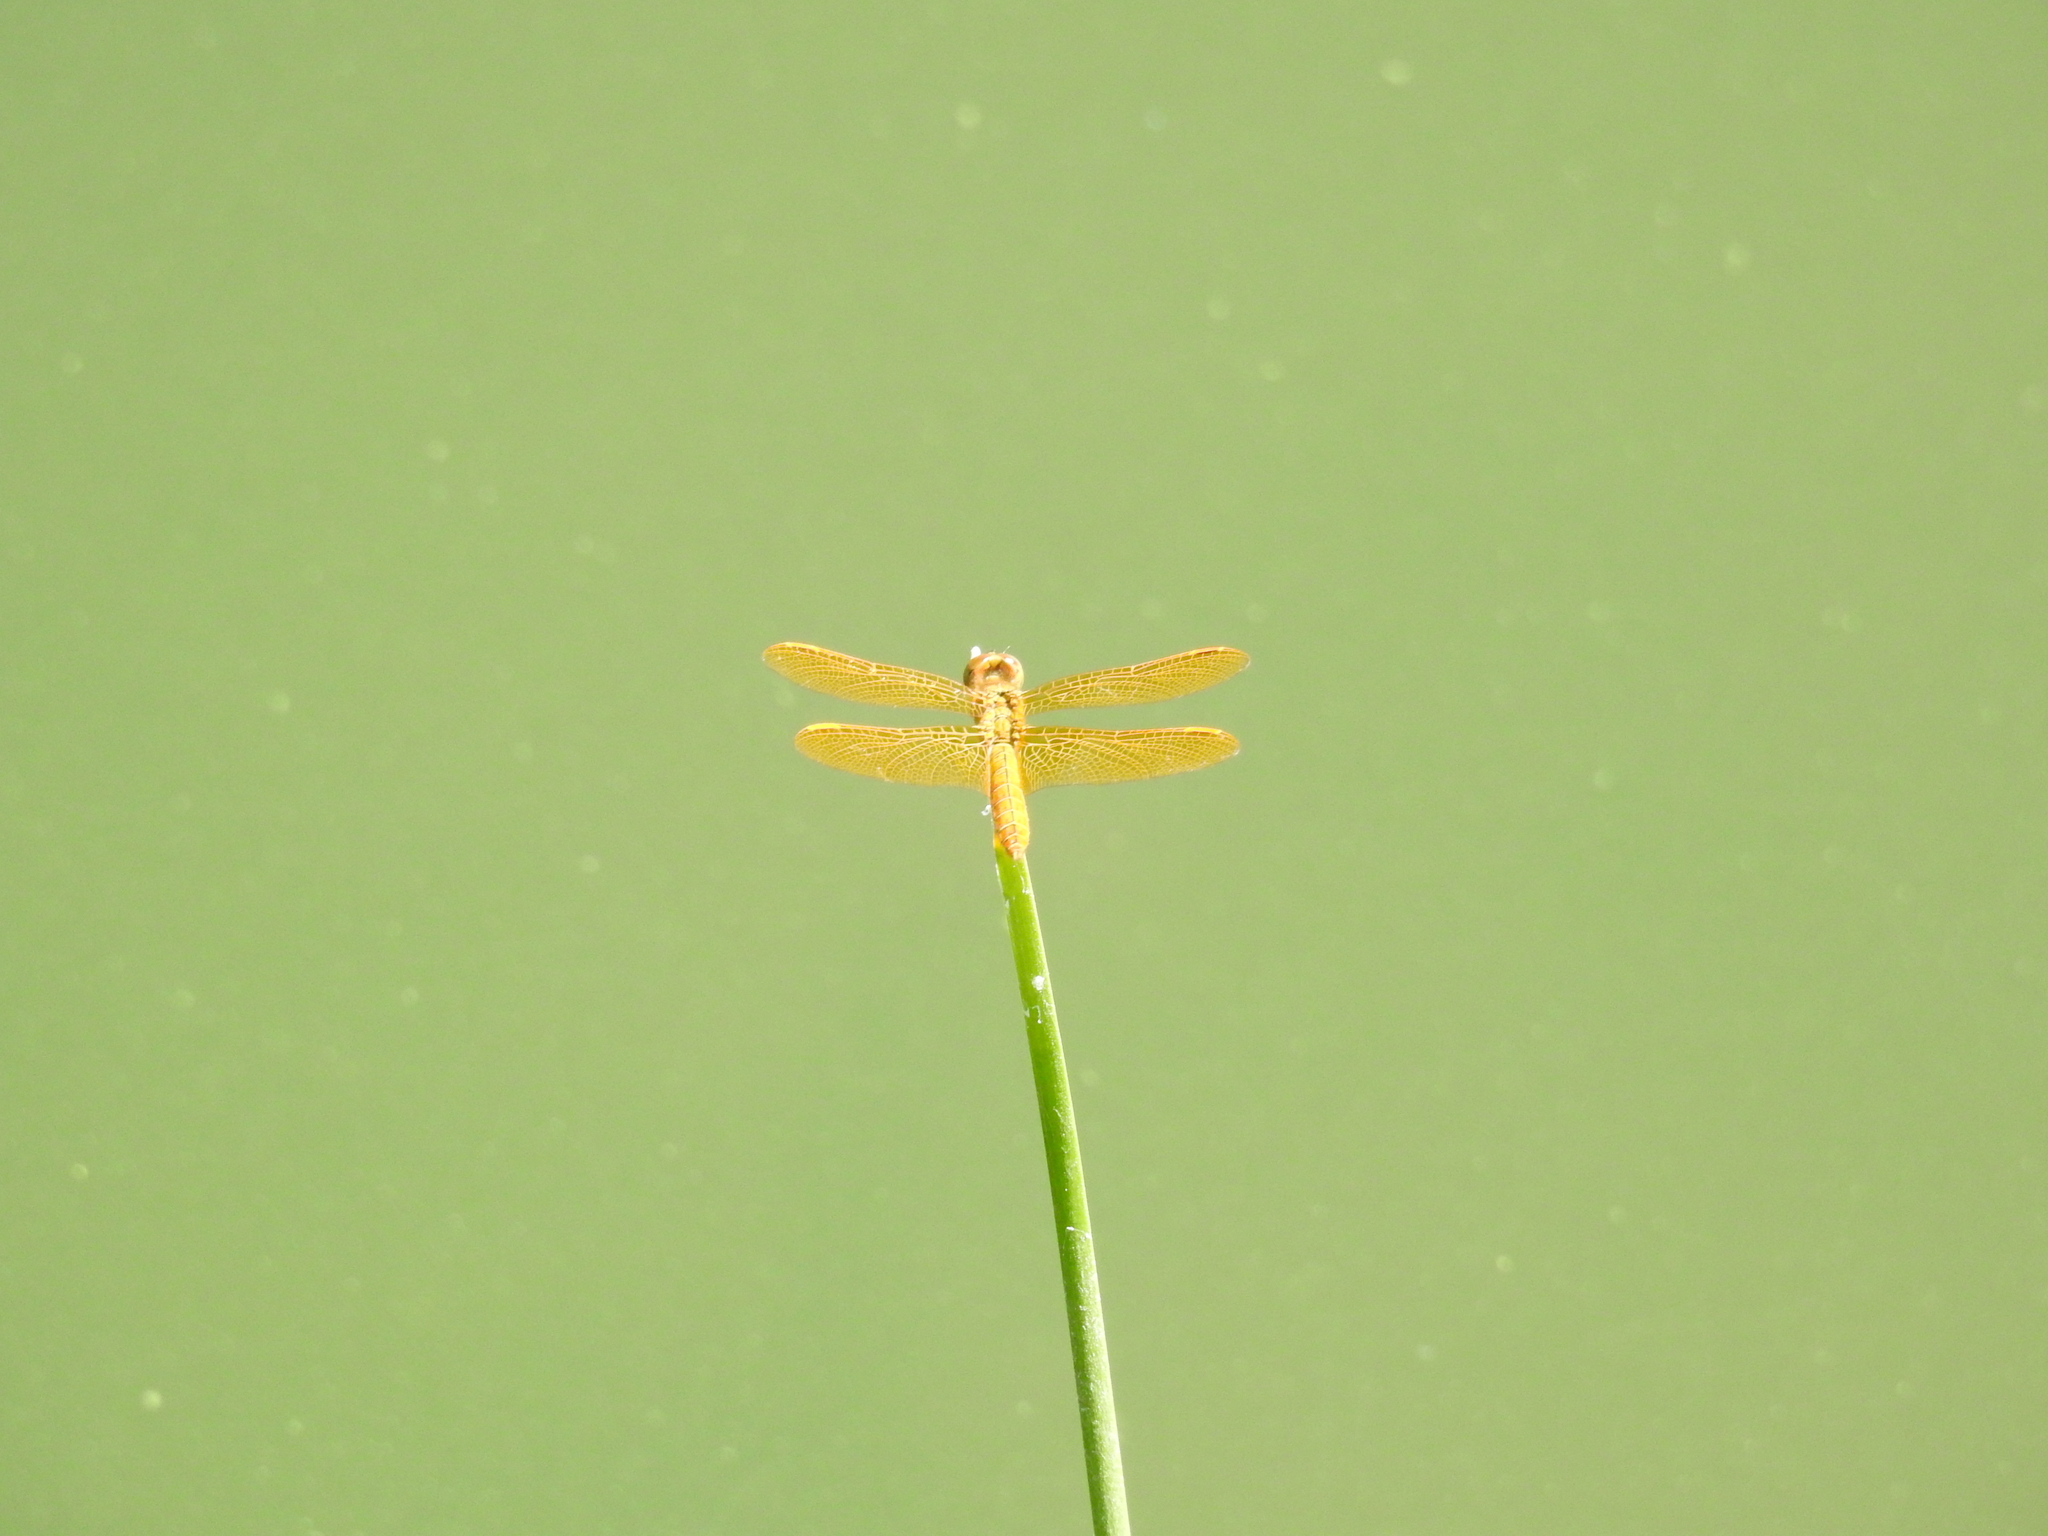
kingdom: Animalia
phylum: Arthropoda
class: Insecta
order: Odonata
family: Libellulidae
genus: Perithemis
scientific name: Perithemis intensa
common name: Mexican amberwing
